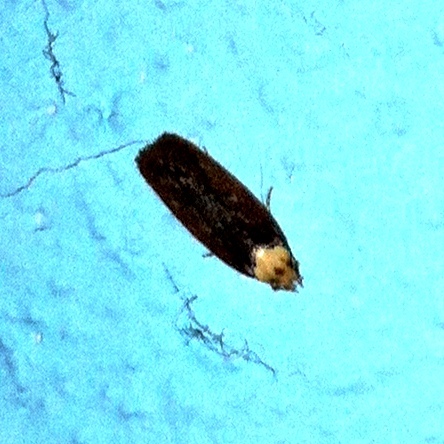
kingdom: Animalia
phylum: Arthropoda
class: Insecta
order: Lepidoptera
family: Depressariidae
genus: Depressaria
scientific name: Depressaria depressana
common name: Lost flat-body
